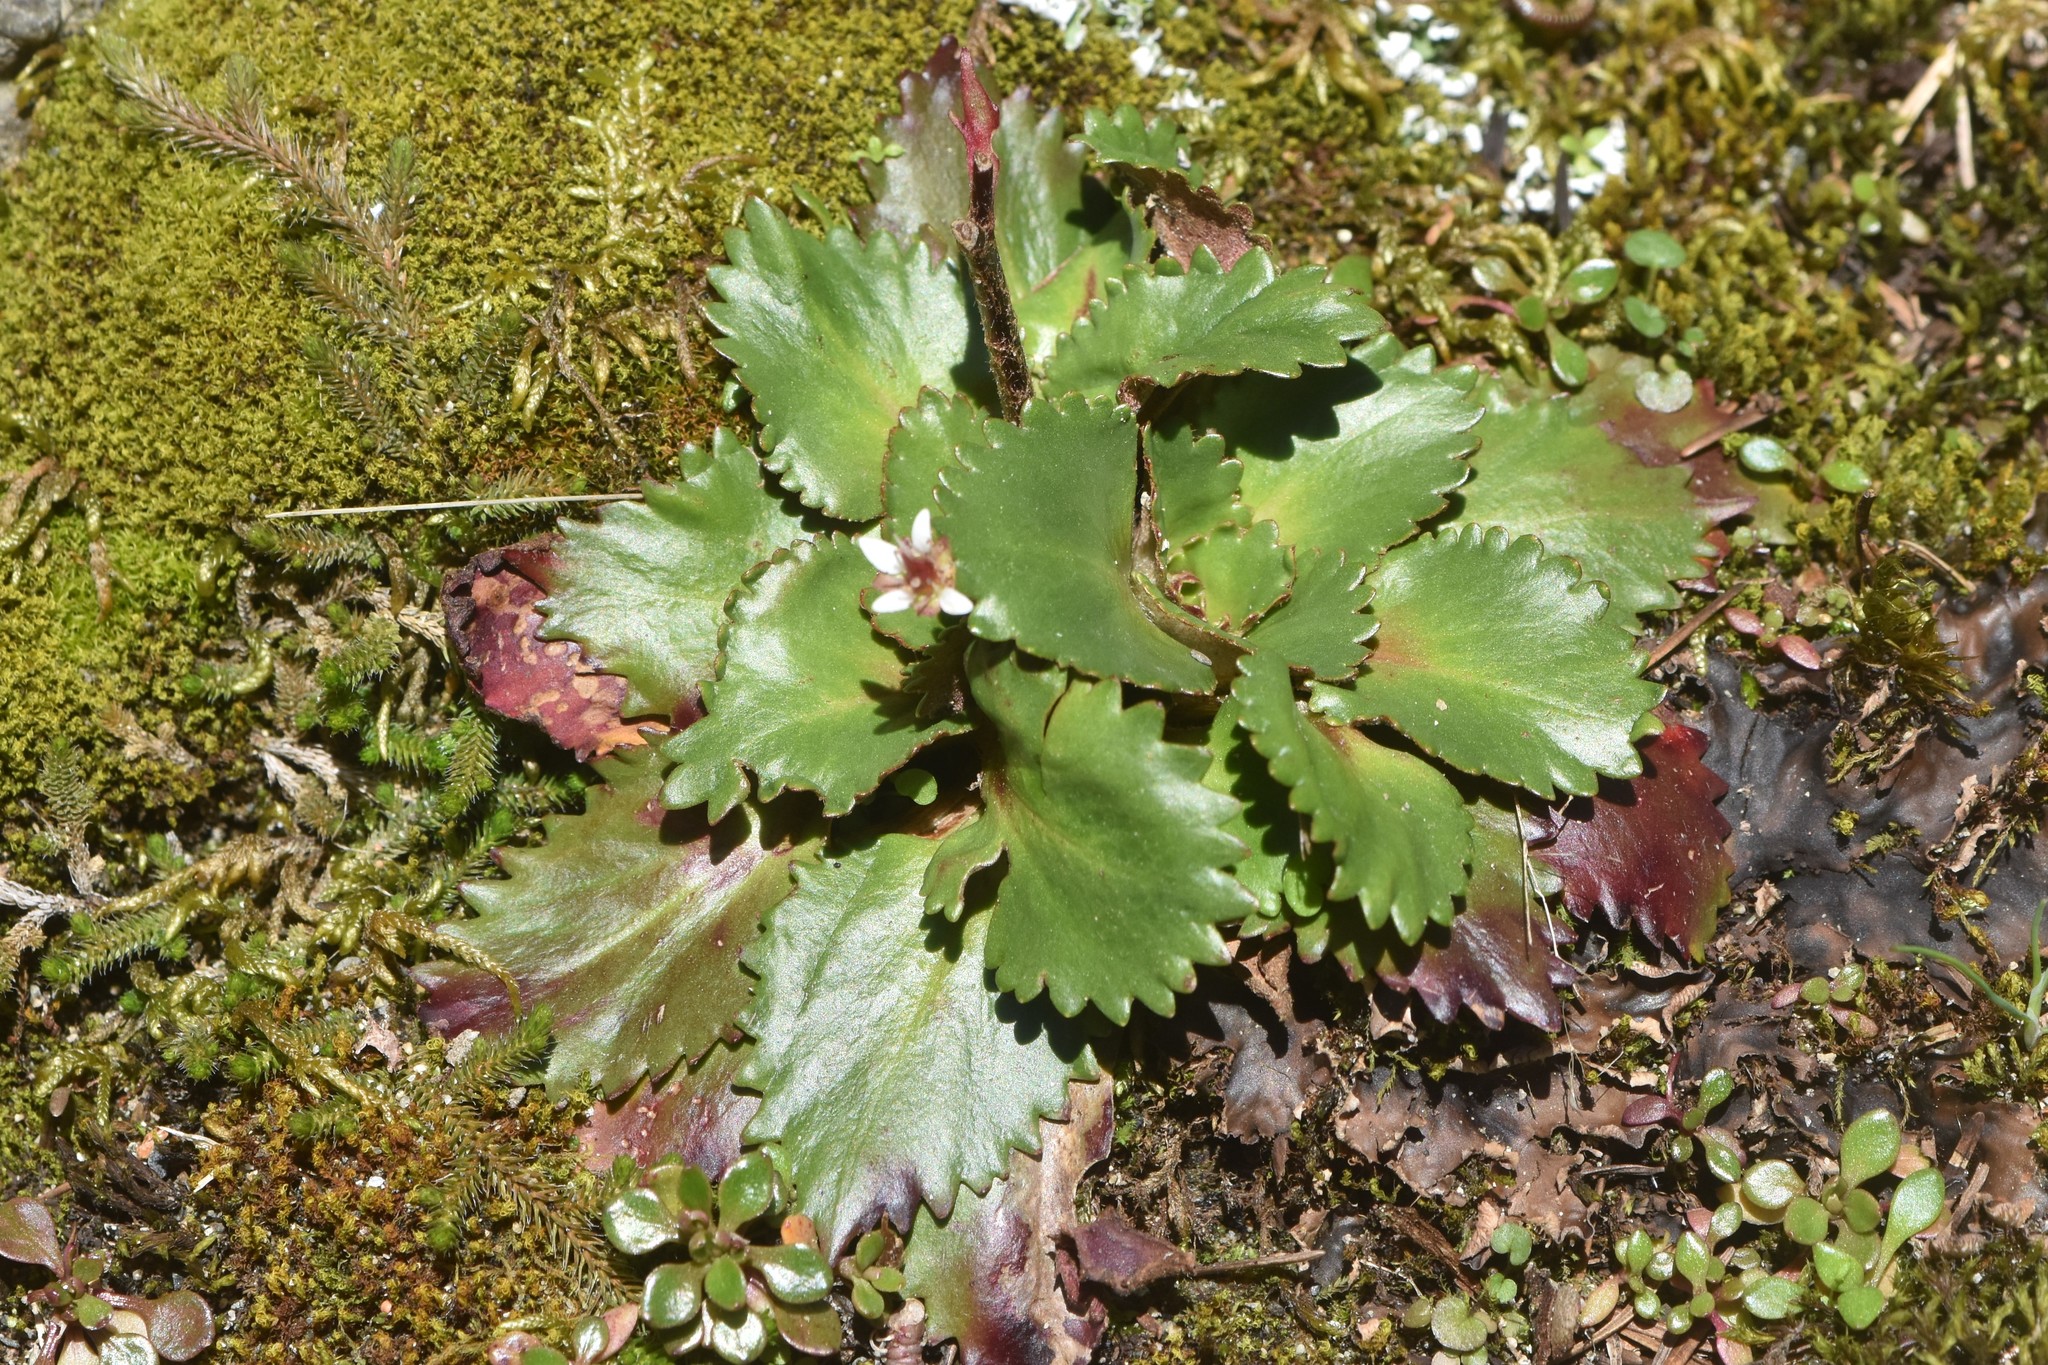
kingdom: Plantae
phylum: Tracheophyta
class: Magnoliopsida
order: Saxifragales
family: Saxifragaceae
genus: Micranthes
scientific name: Micranthes rufidula
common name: Rustyhair saxifrage
